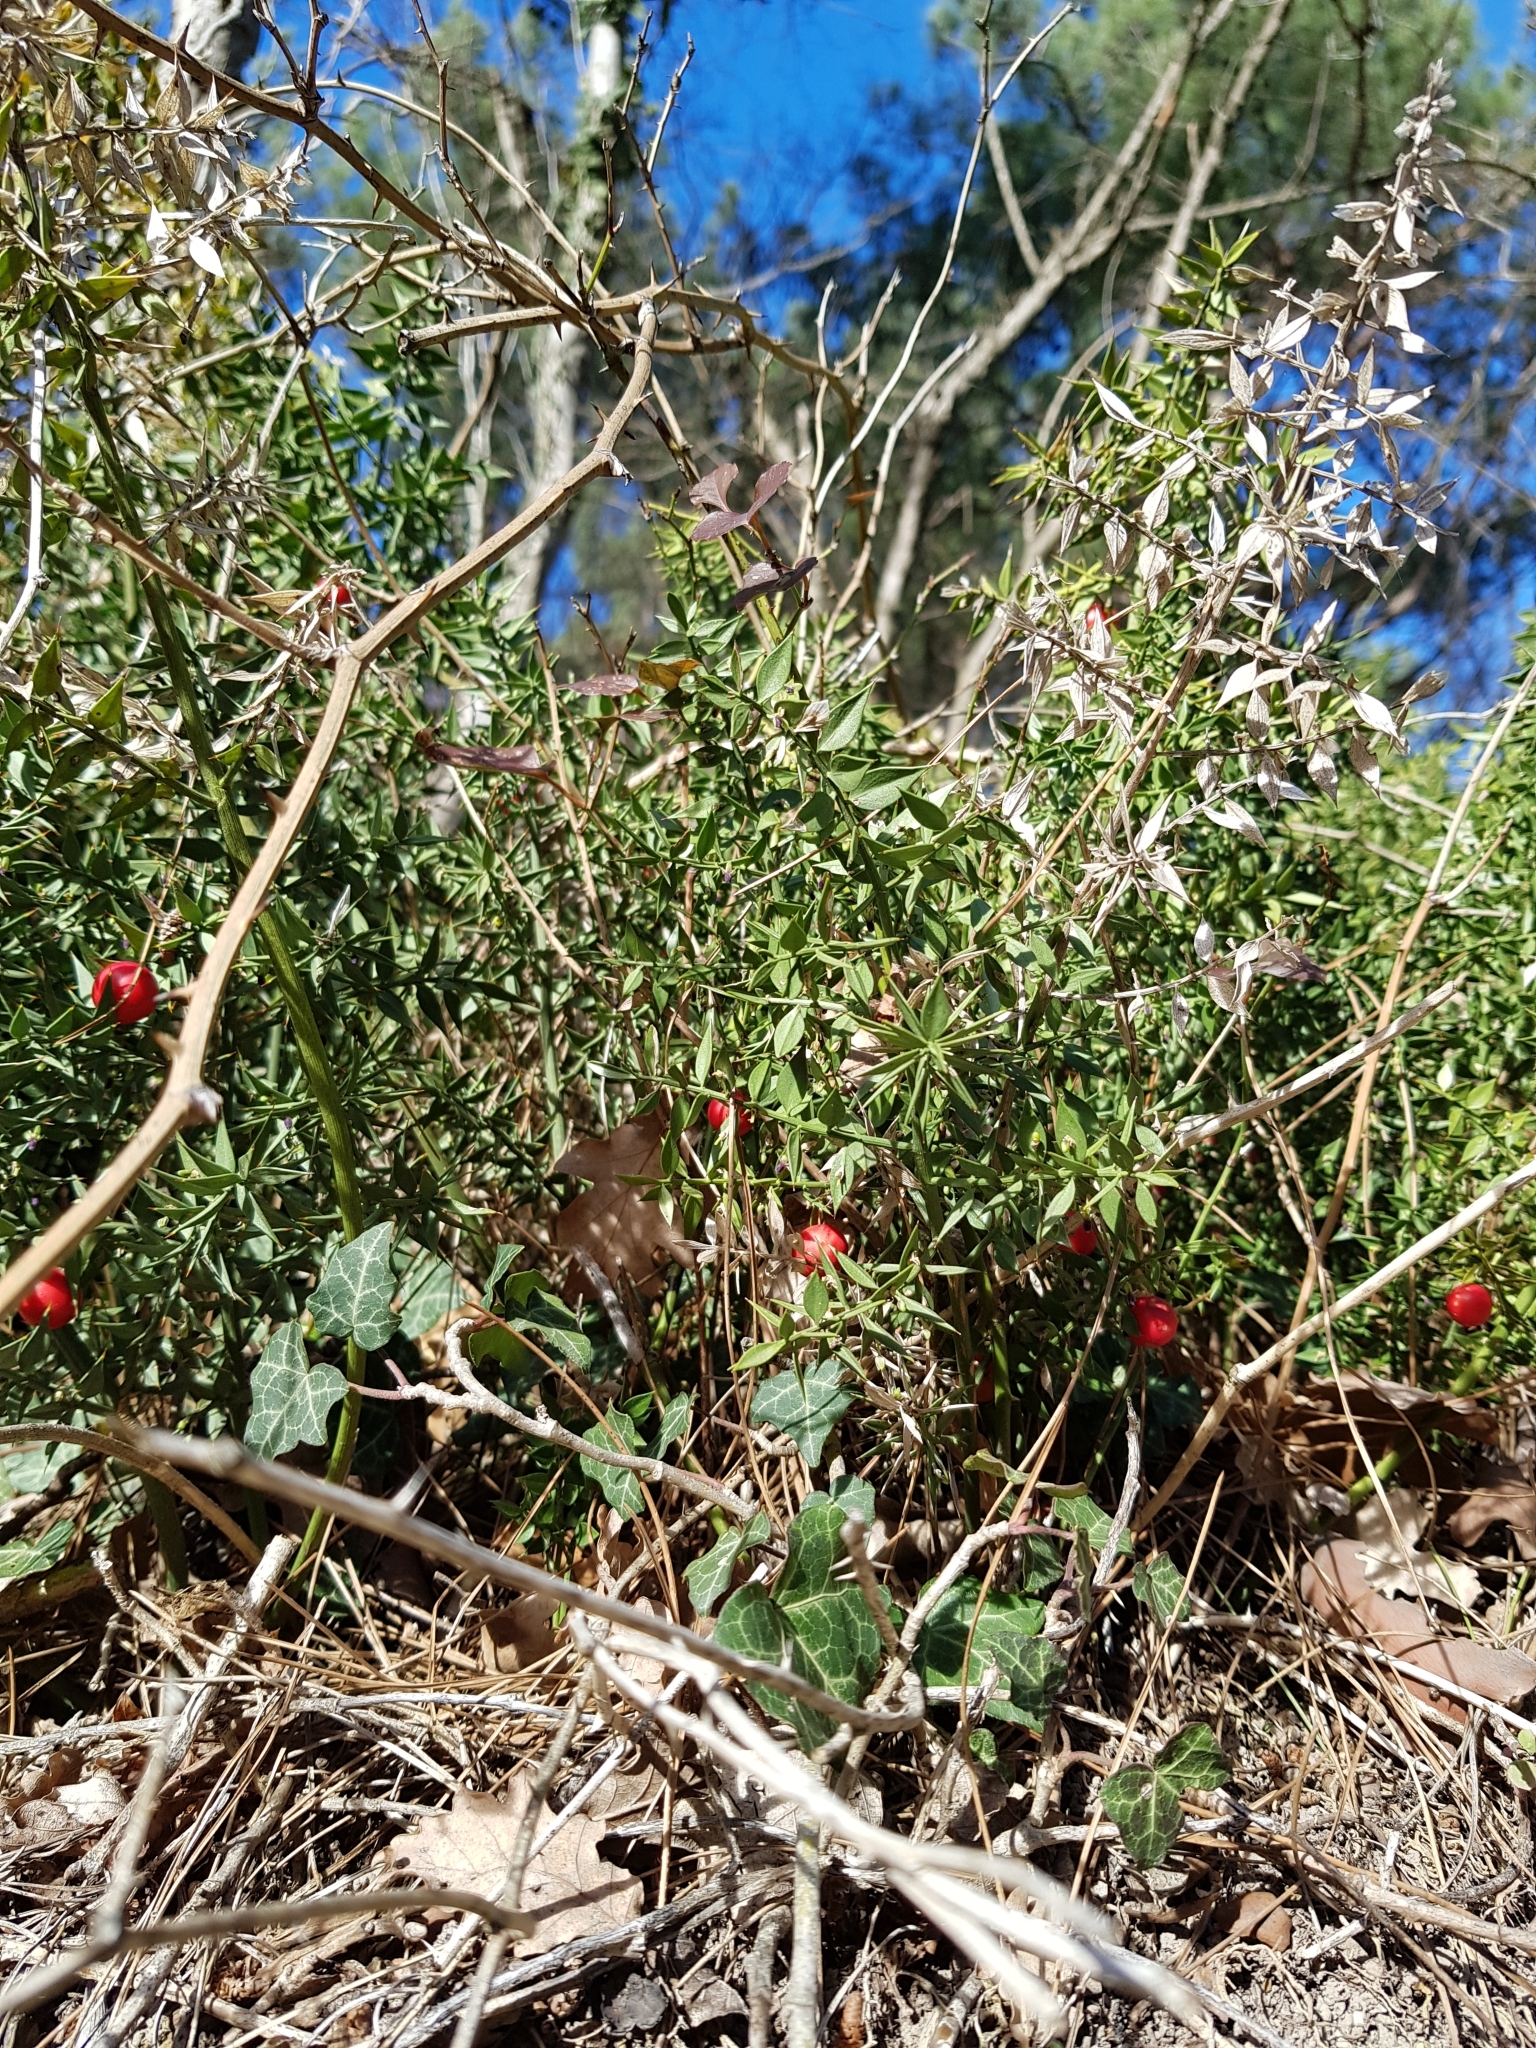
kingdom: Plantae
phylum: Tracheophyta
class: Liliopsida
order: Asparagales
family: Asparagaceae
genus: Ruscus
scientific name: Ruscus aculeatus
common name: Butcher's-broom
